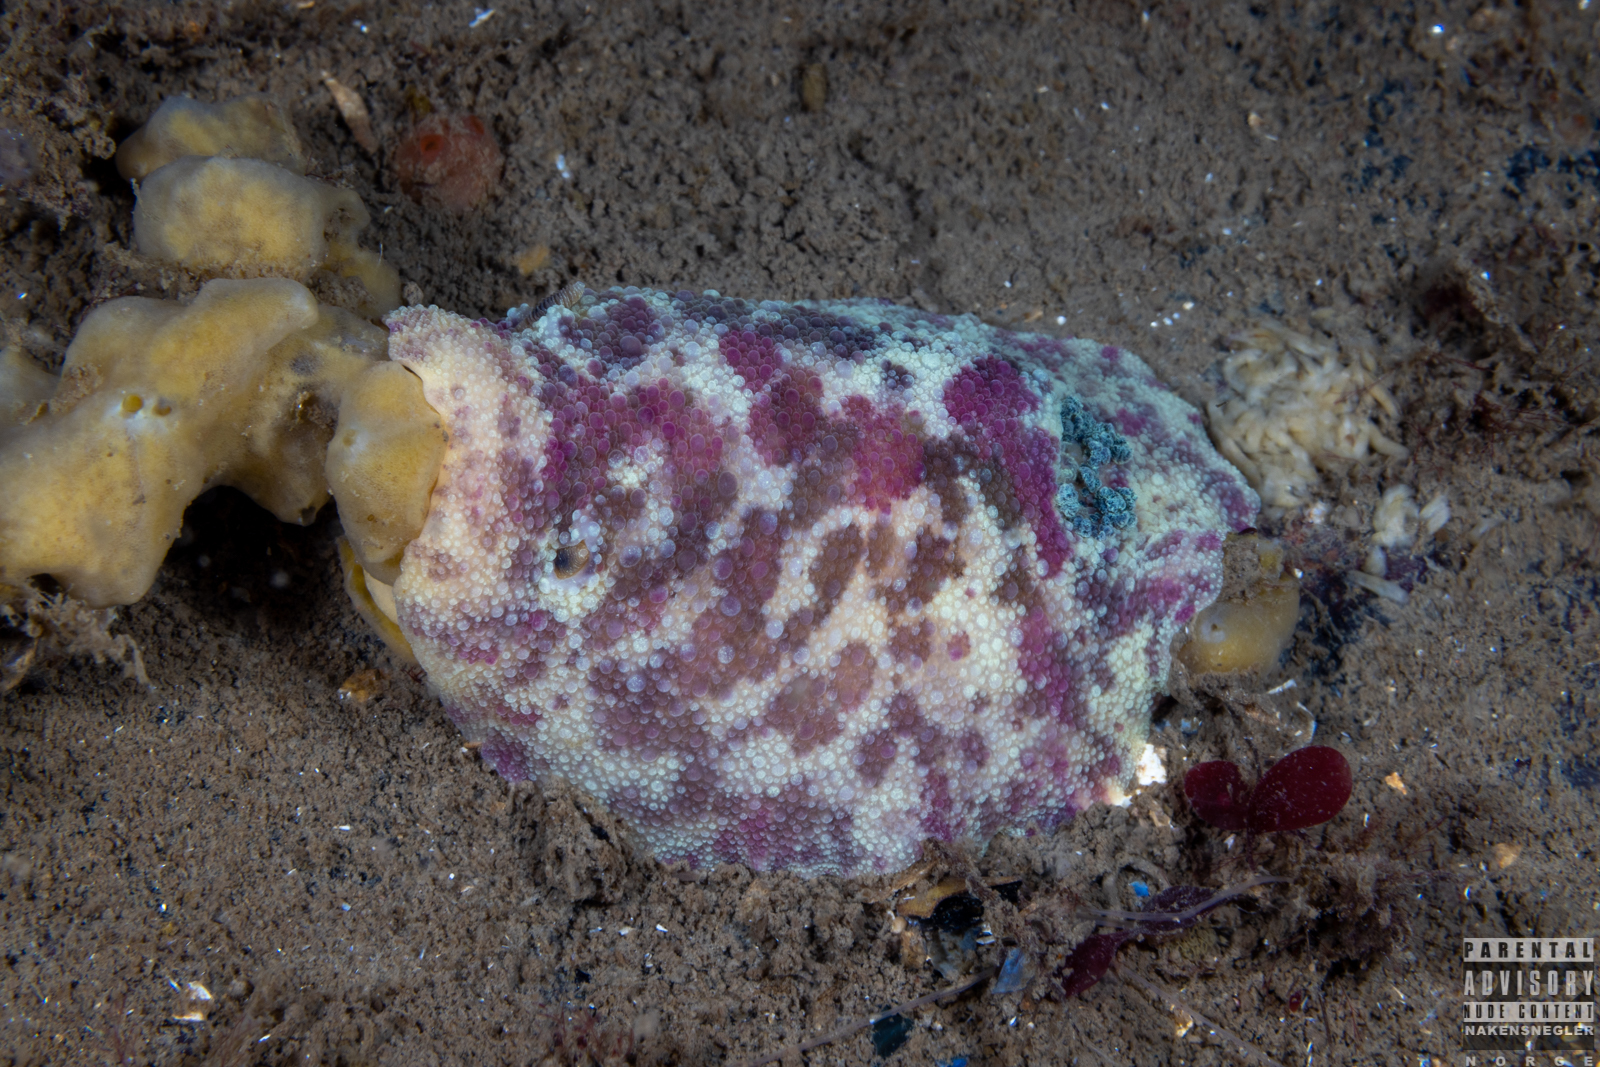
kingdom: Animalia
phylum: Mollusca
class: Gastropoda
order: Nudibranchia
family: Dorididae
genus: Doris
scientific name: Doris pseudoargus
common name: Sea lemon
